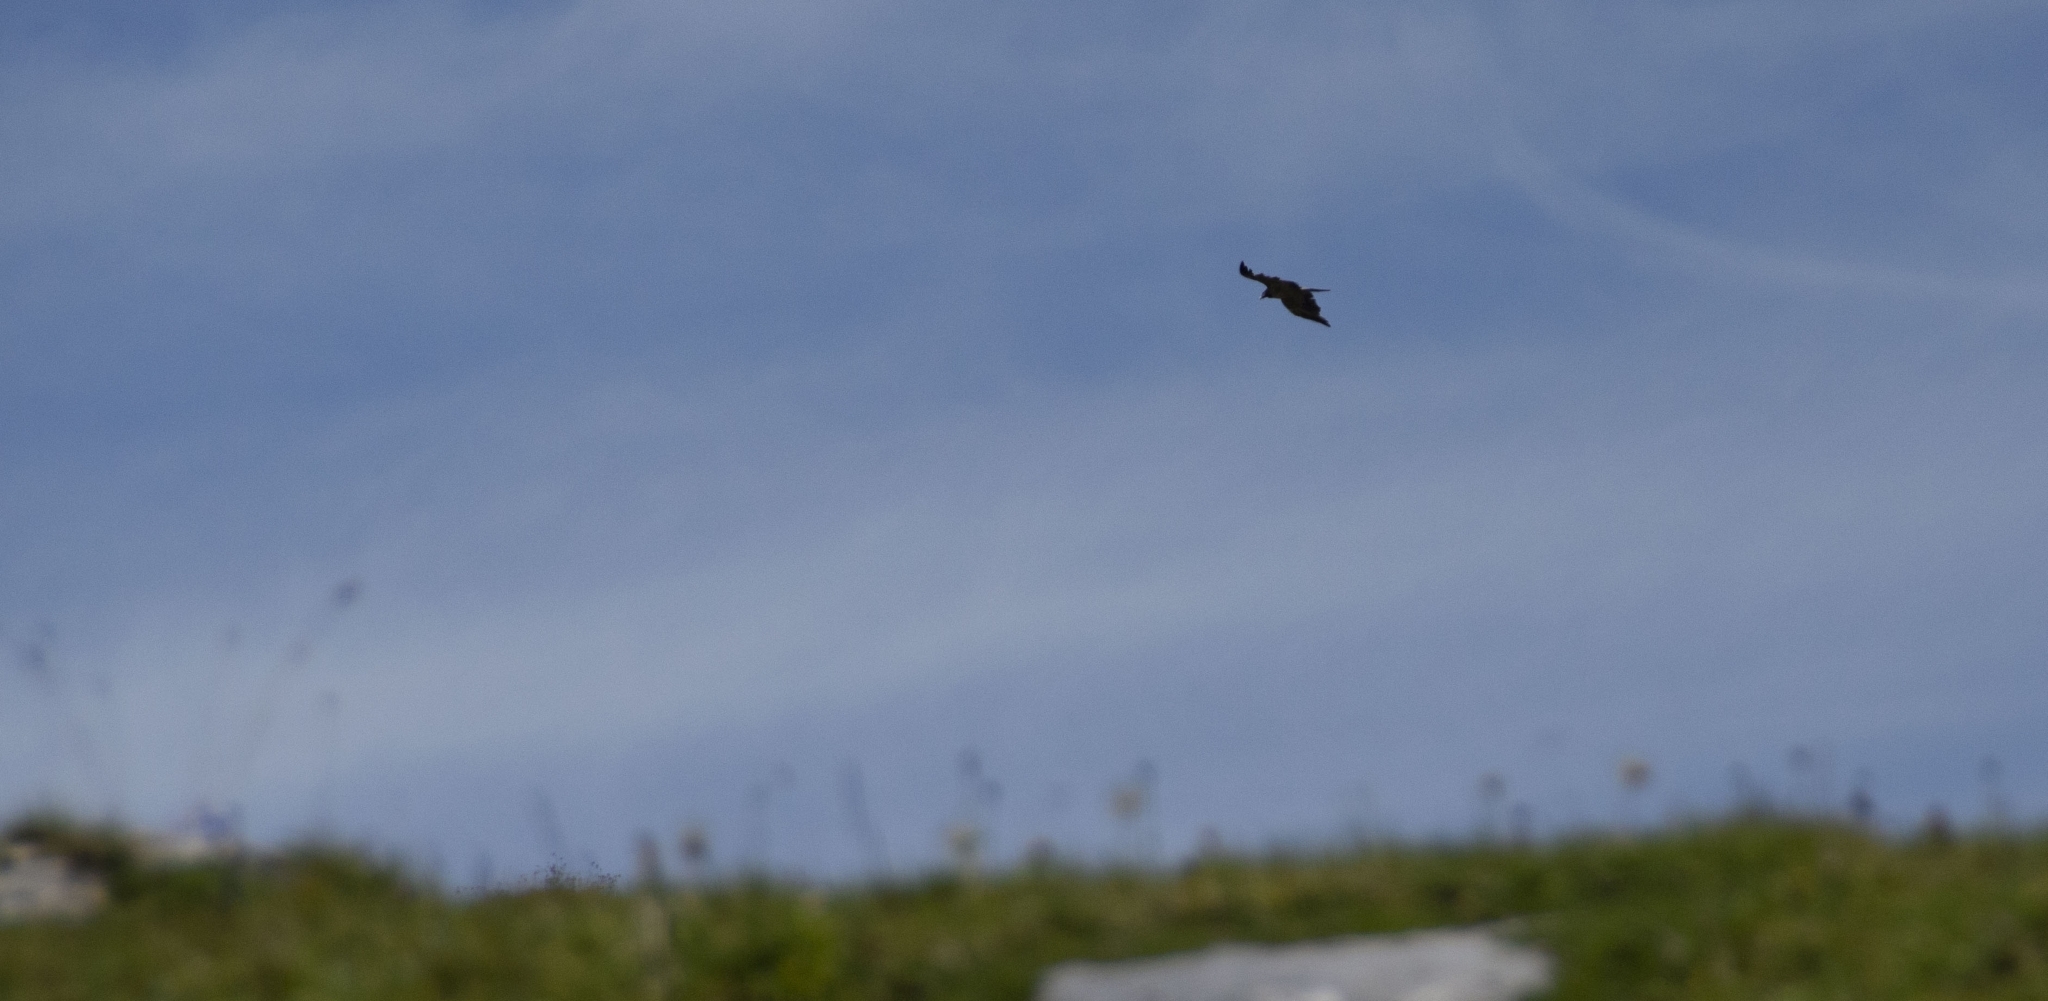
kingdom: Animalia
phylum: Chordata
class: Aves
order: Accipitriformes
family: Accipitridae
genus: Gypaetus
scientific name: Gypaetus barbatus
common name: Bearded vulture
